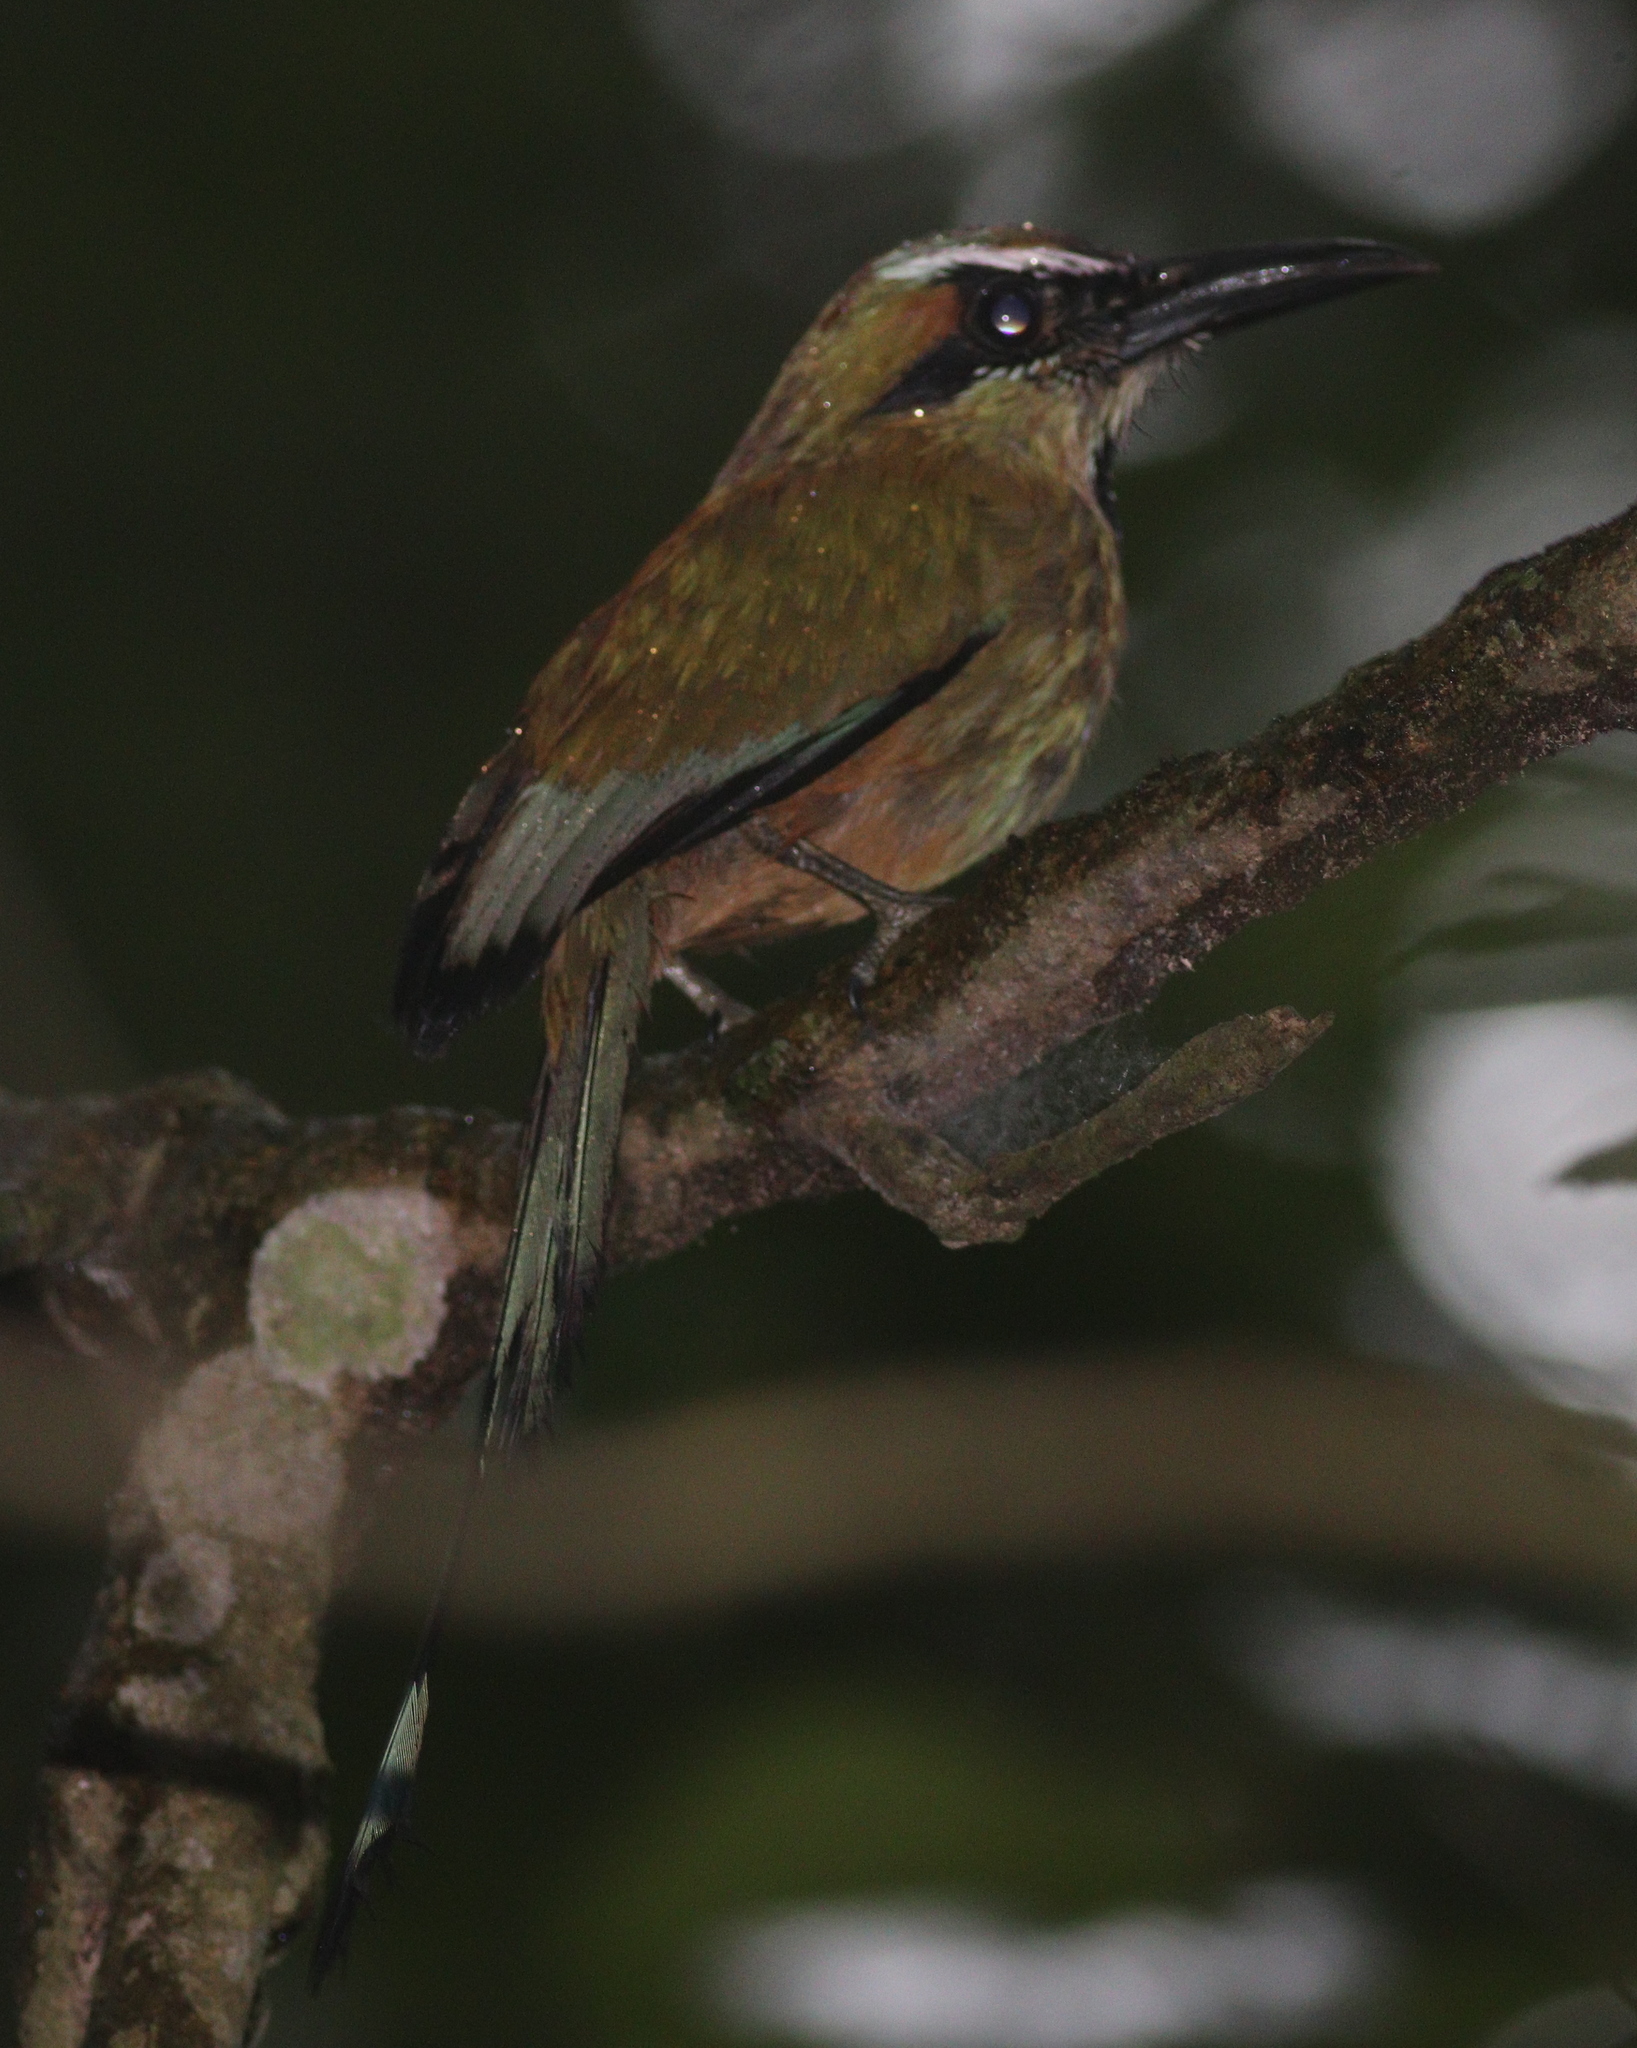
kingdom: Animalia
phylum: Chordata
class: Aves
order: Coraciiformes
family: Momotidae
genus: Eumomota
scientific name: Eumomota superciliosa
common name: Turquoise-browed motmot
